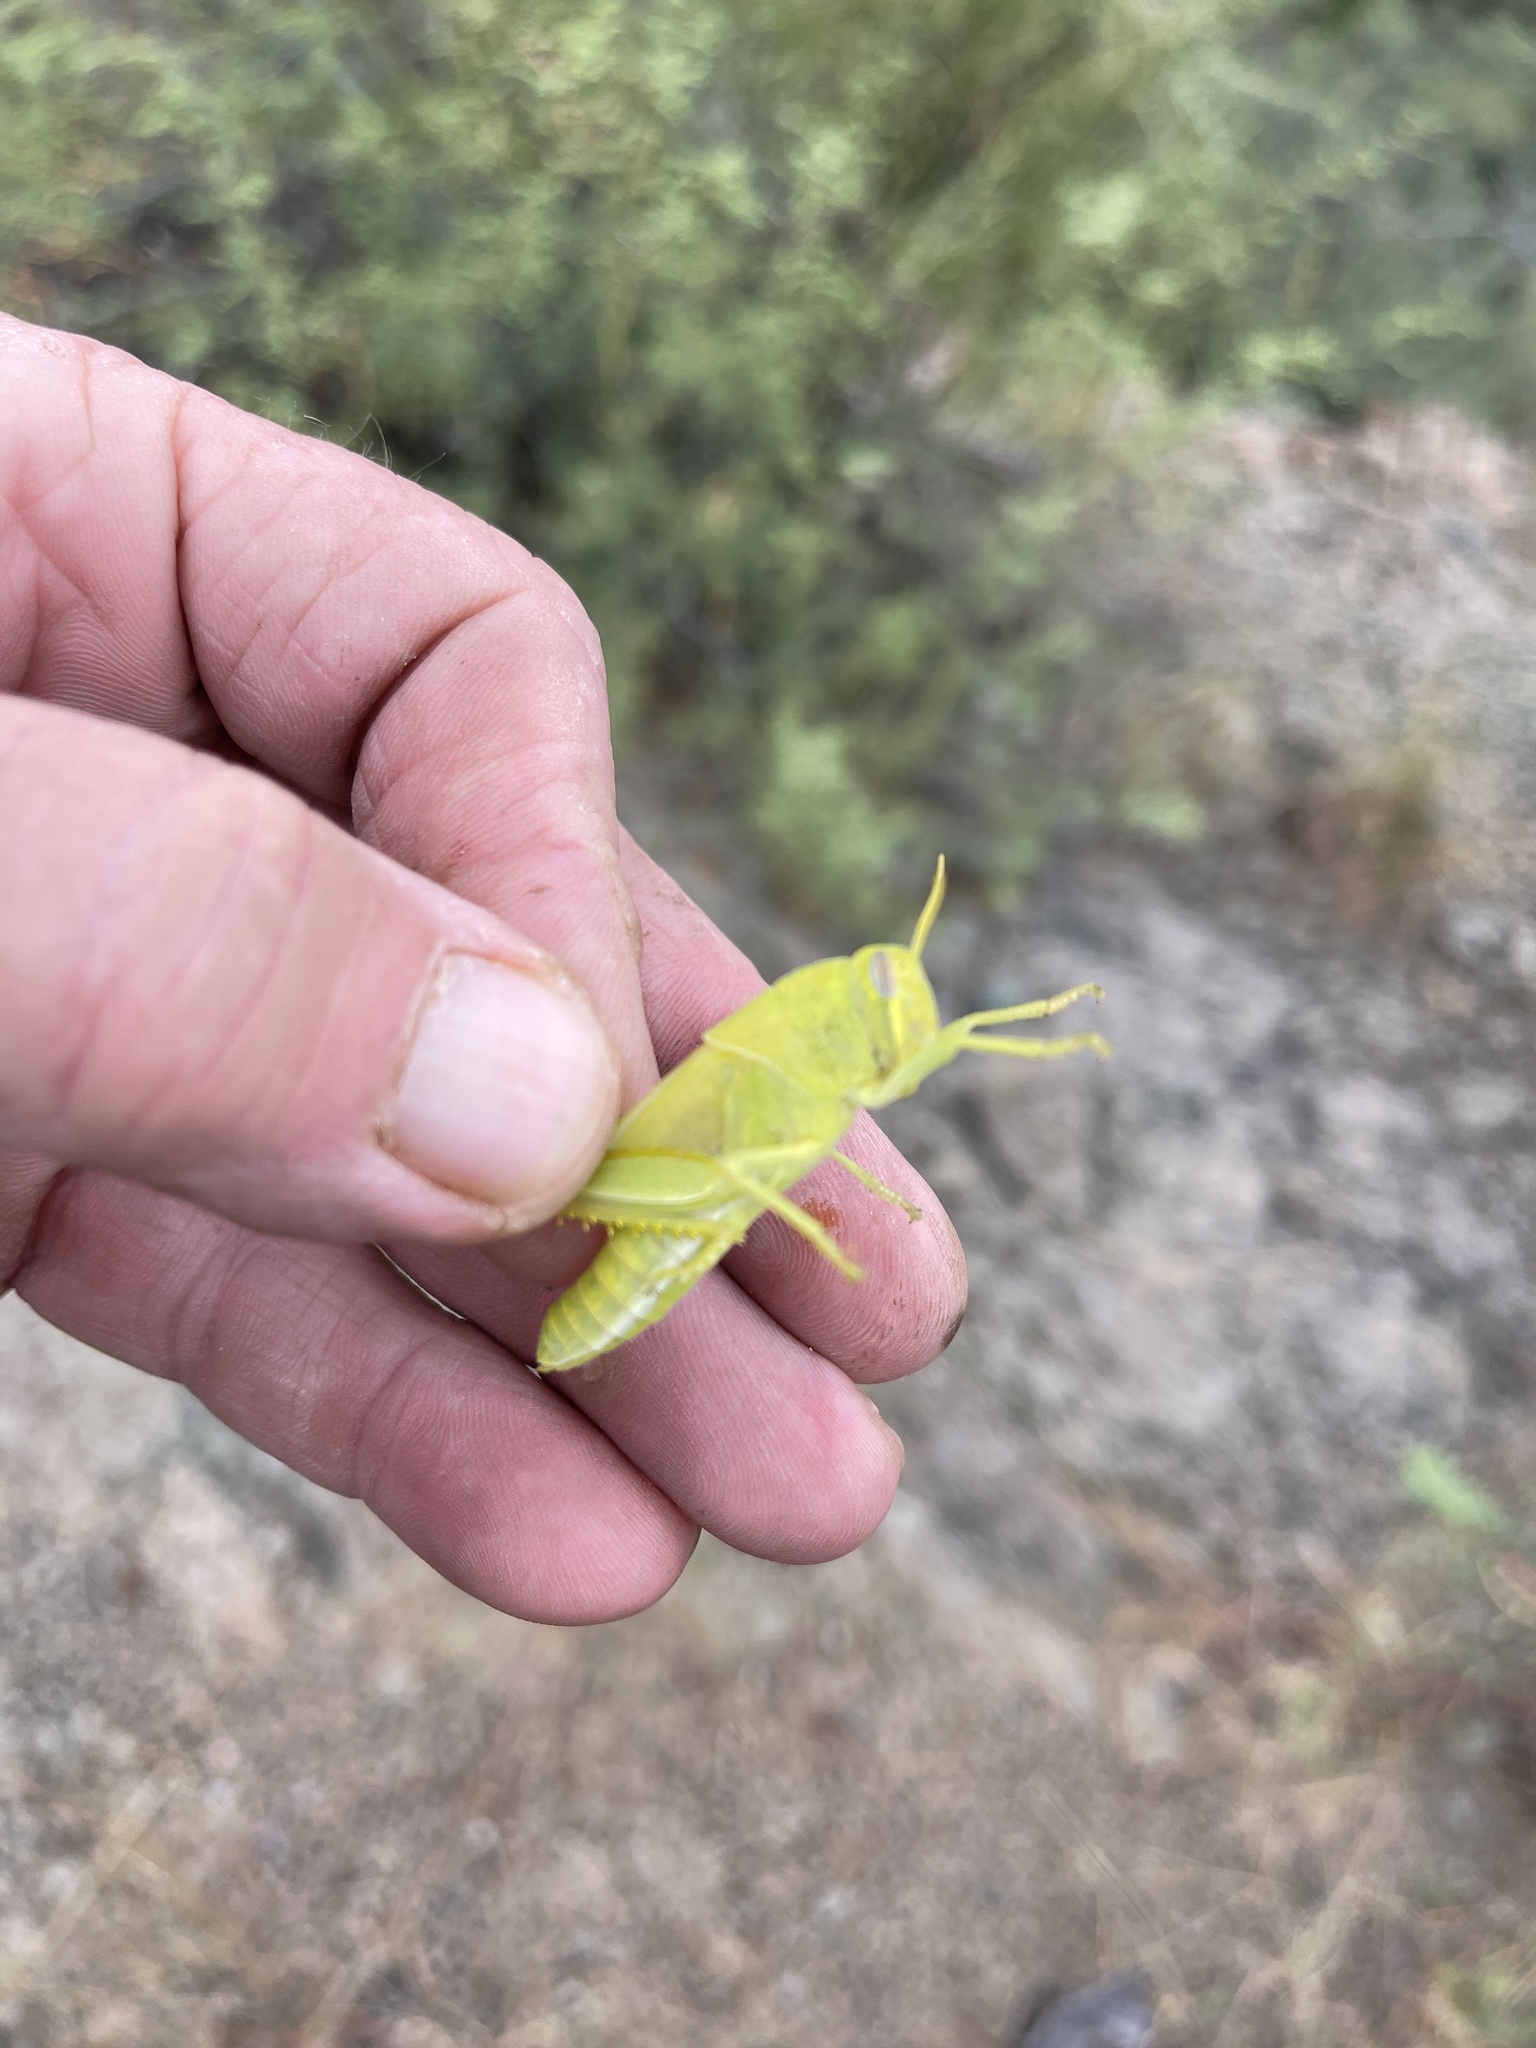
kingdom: Animalia
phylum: Arthropoda
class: Insecta
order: Orthoptera
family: Acrididae
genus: Schistocerca
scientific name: Schistocerca nitens
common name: Vagrant grasshopper
